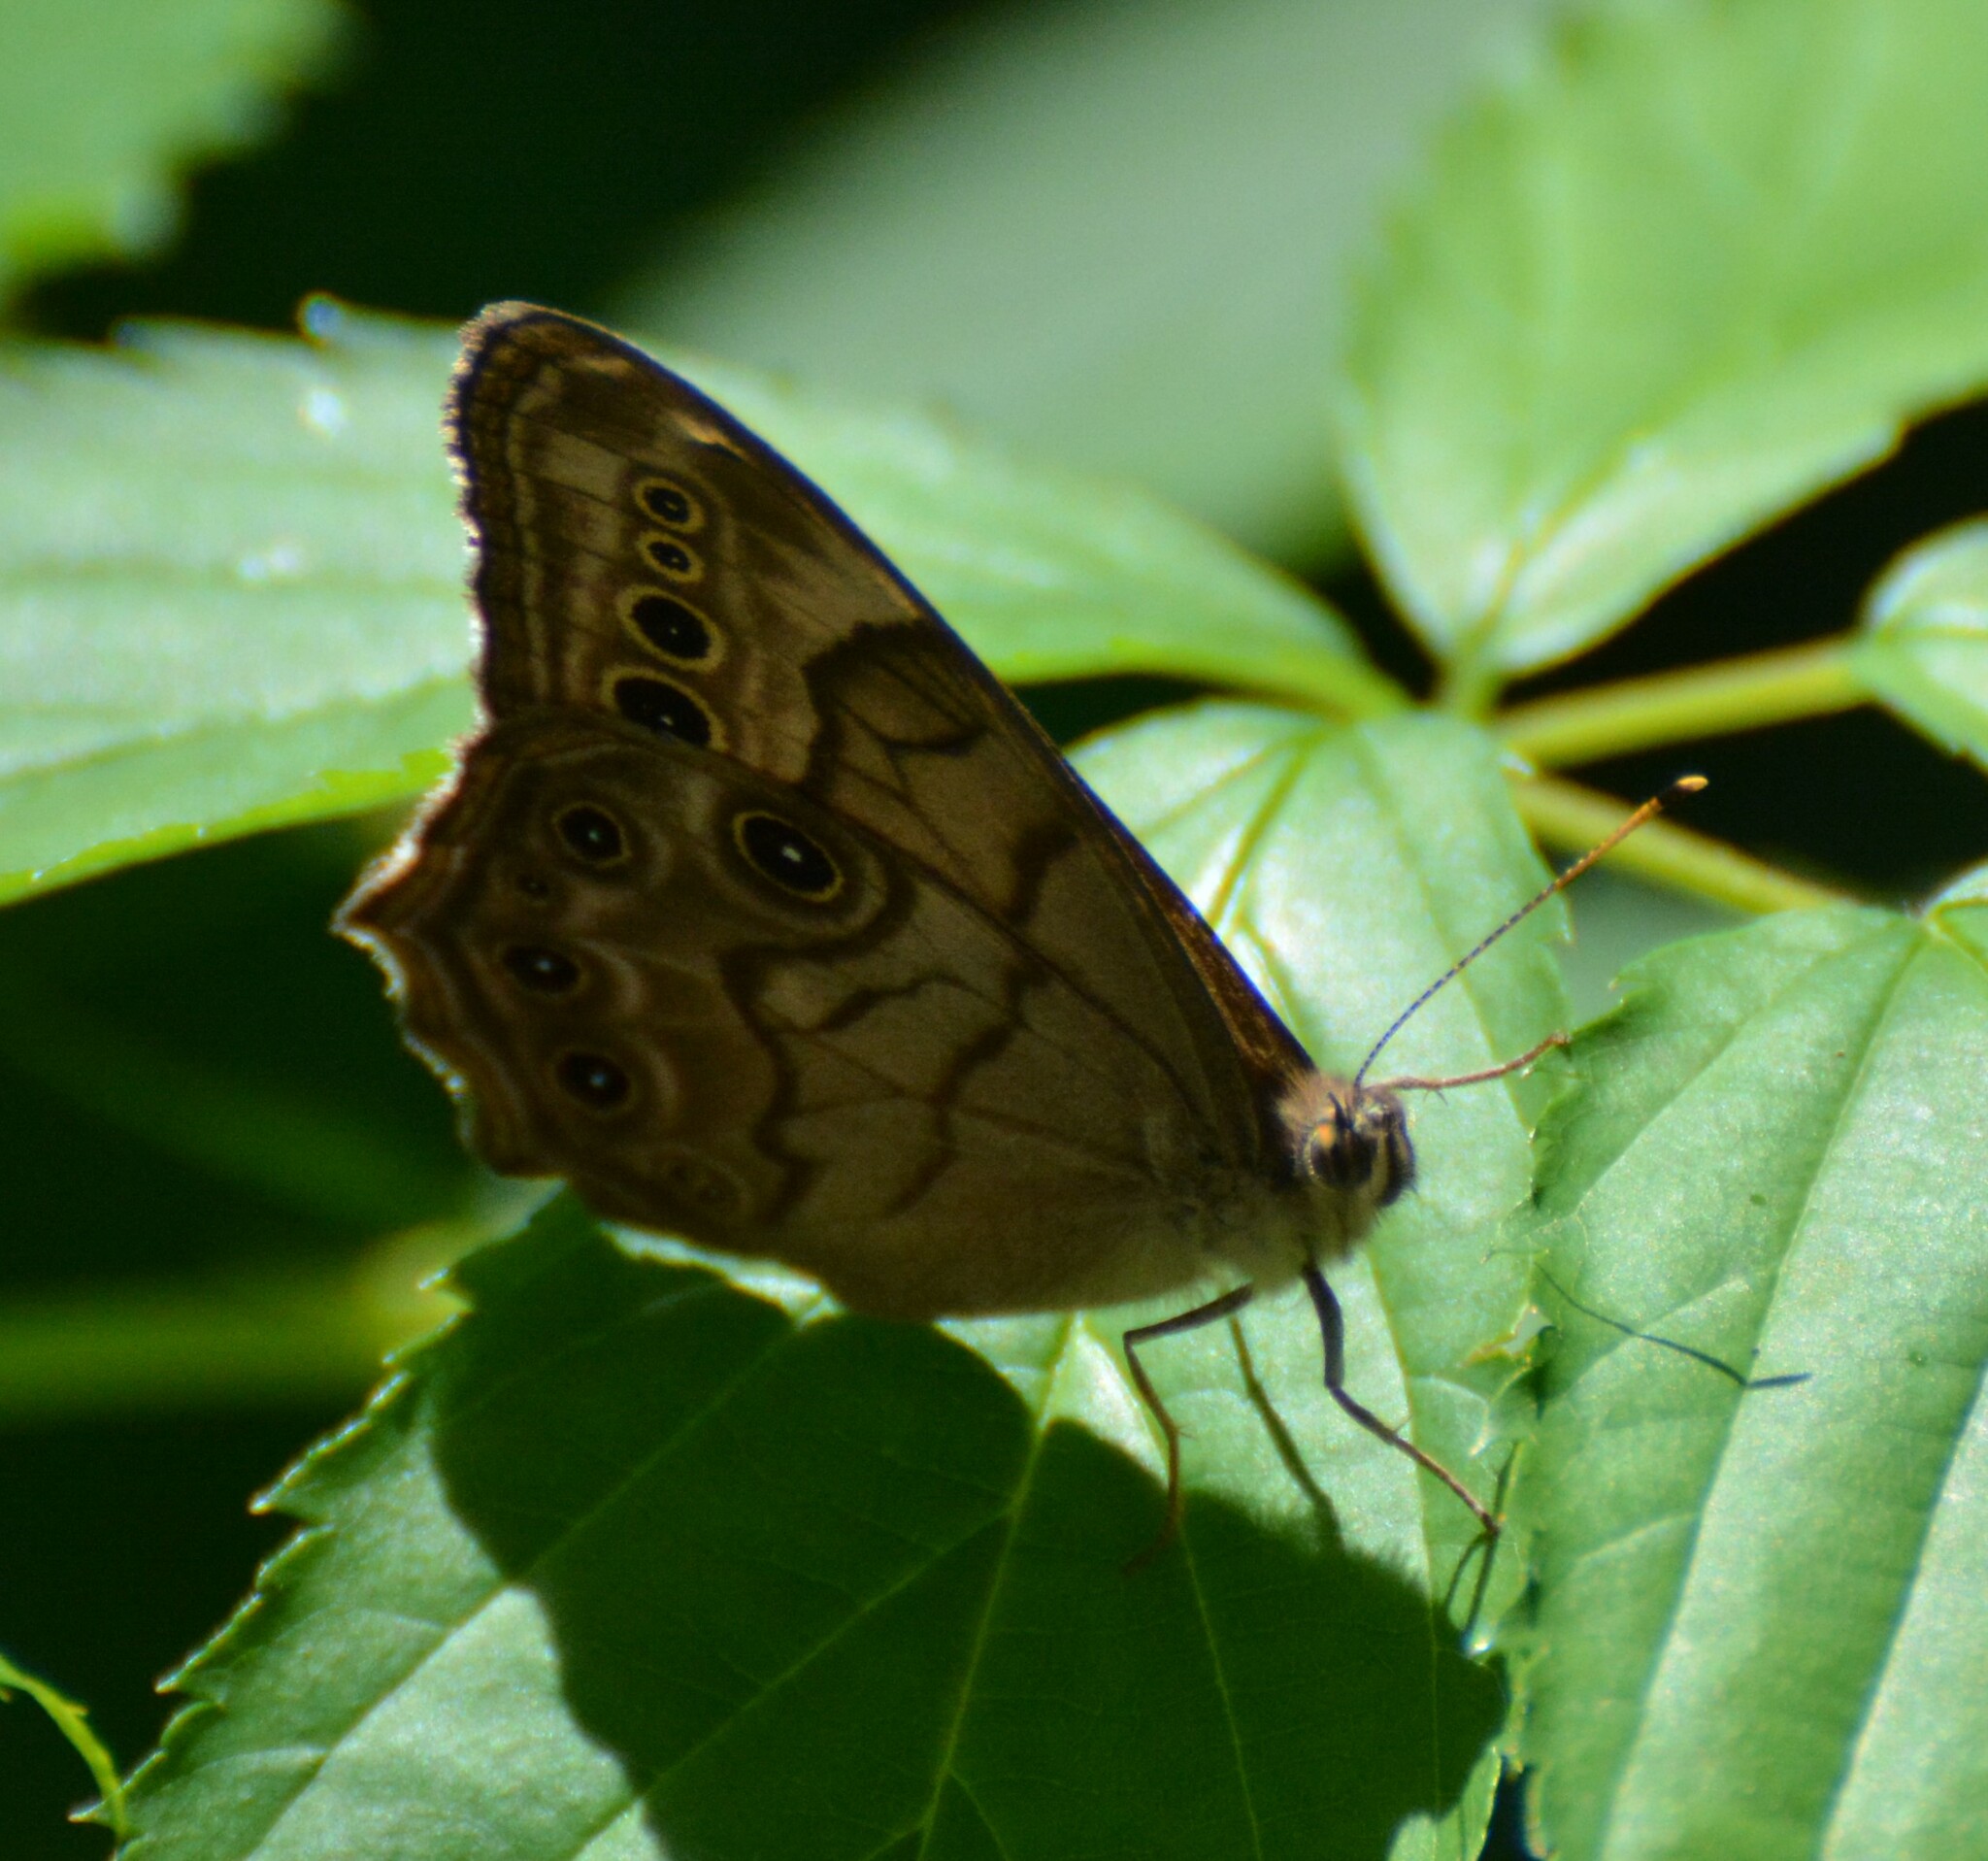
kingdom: Animalia
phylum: Arthropoda
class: Insecta
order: Lepidoptera
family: Nymphalidae
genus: Lethe
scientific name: Lethe anthedon
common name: Northern pearly-eye
